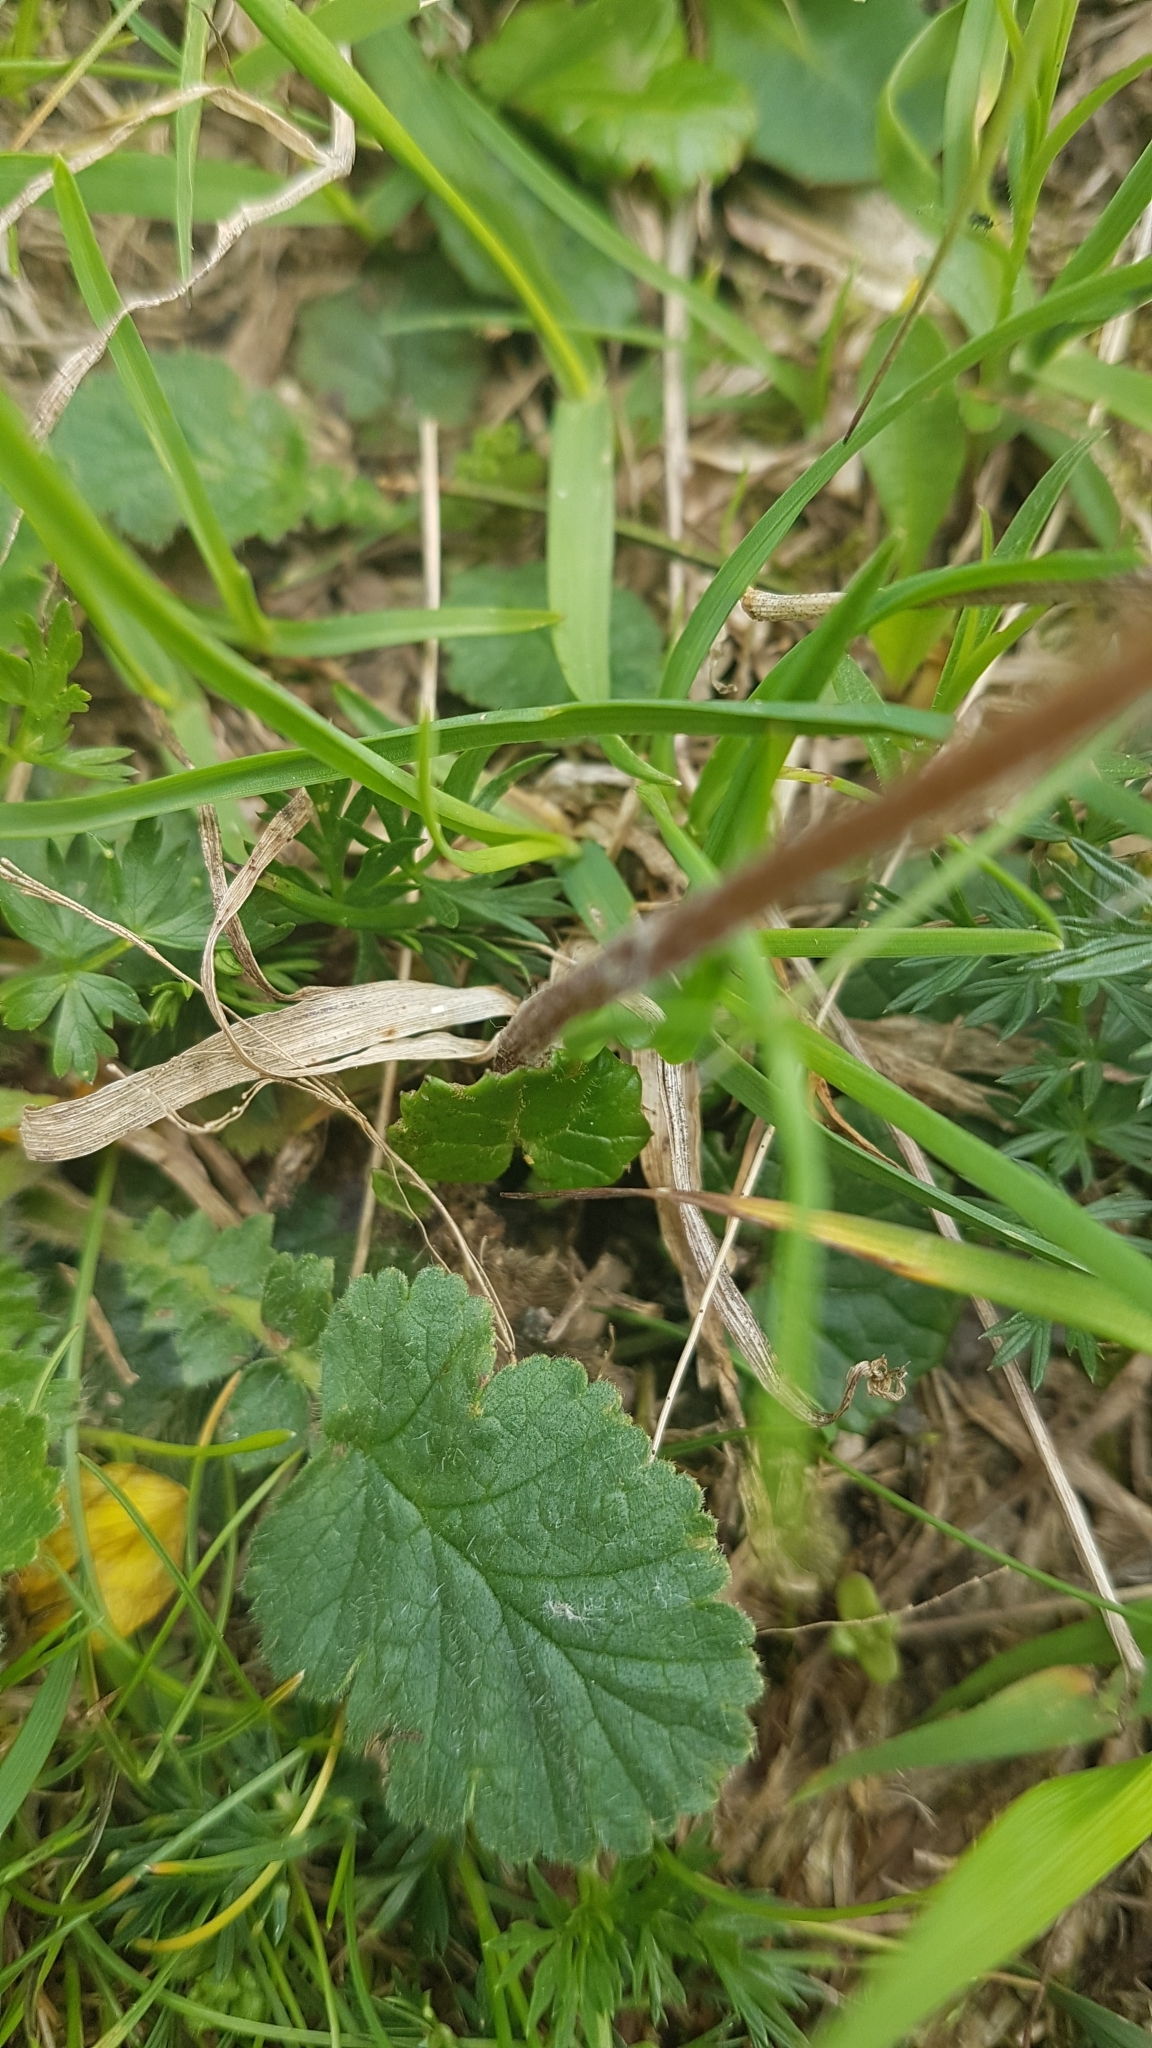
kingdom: Plantae
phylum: Tracheophyta
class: Magnoliopsida
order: Asterales
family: Asteraceae
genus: Homogyne
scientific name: Homogyne alpina
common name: Purple colt's-foot
